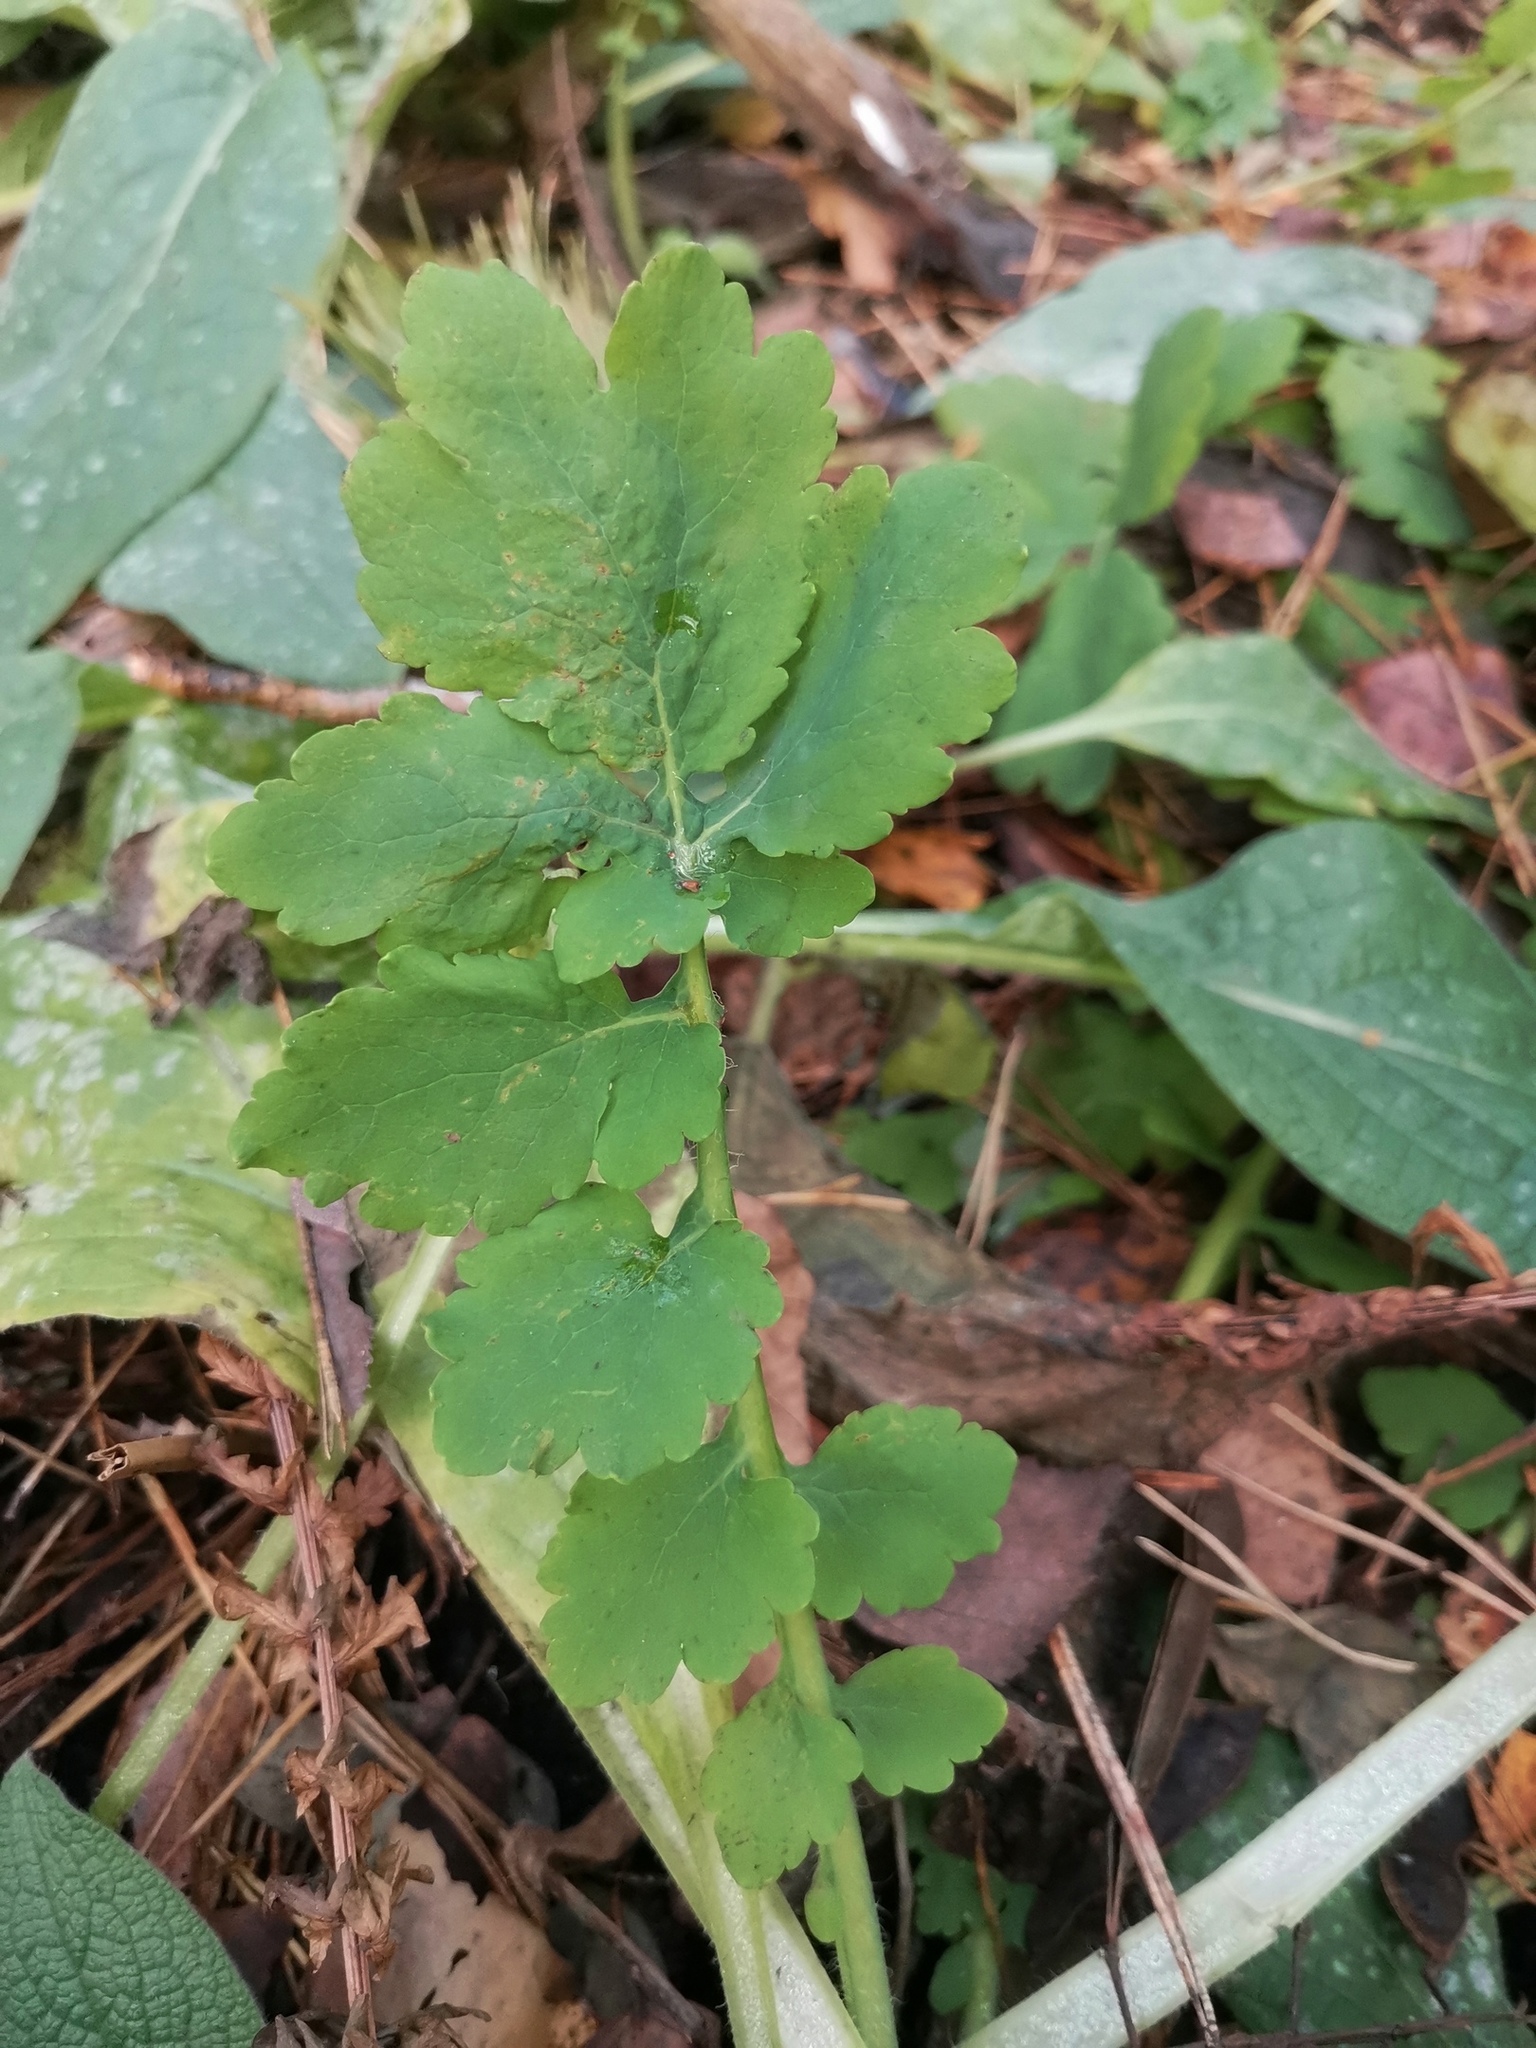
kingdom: Plantae
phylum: Tracheophyta
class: Magnoliopsida
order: Ranunculales
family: Papaveraceae
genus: Chelidonium
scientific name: Chelidonium majus
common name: Greater celandine
